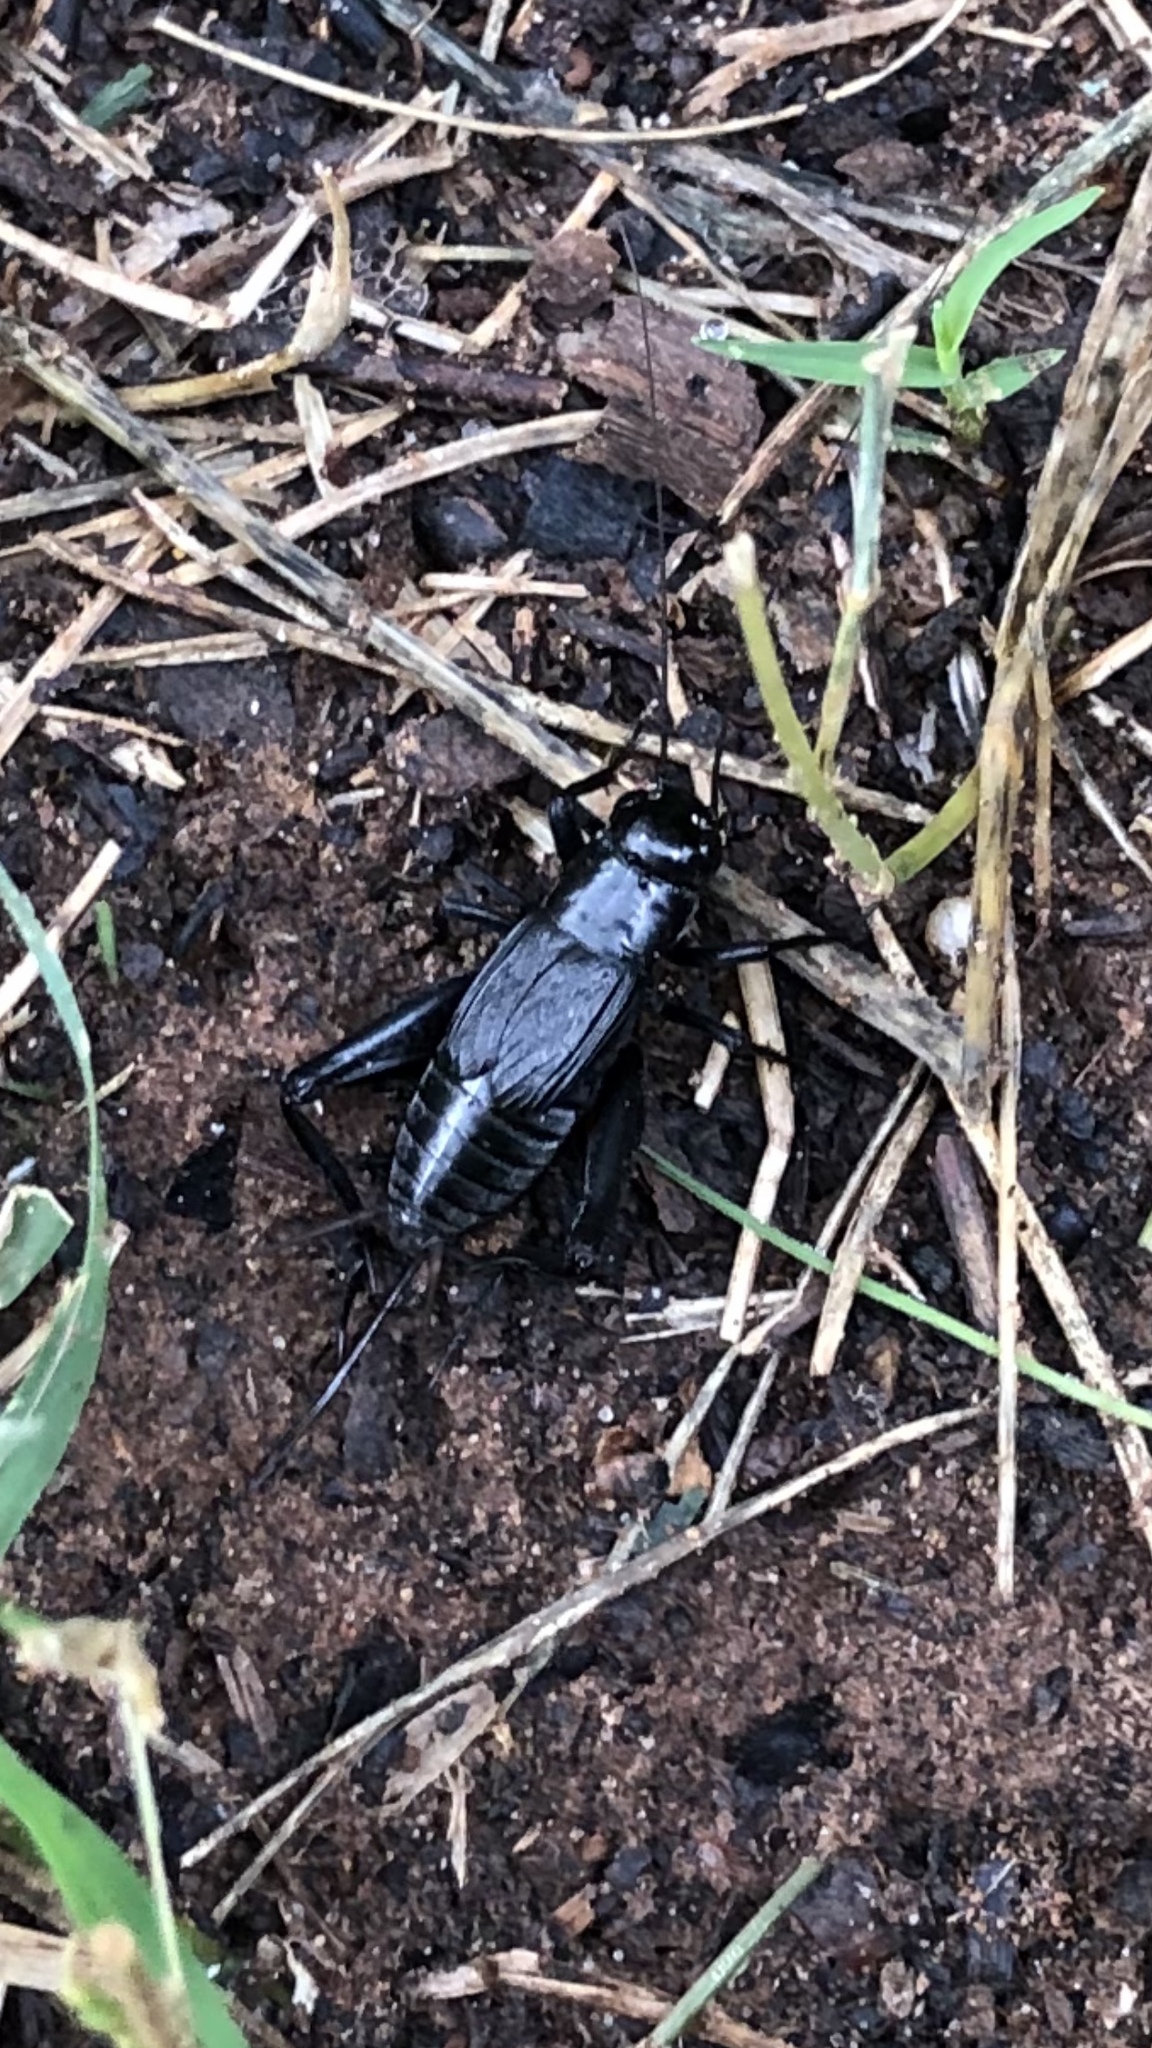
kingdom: Animalia
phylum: Arthropoda
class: Insecta
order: Orthoptera
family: Gryllidae
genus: Gryllus
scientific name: Gryllus pennsylvanicus
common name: Fall field cricket
